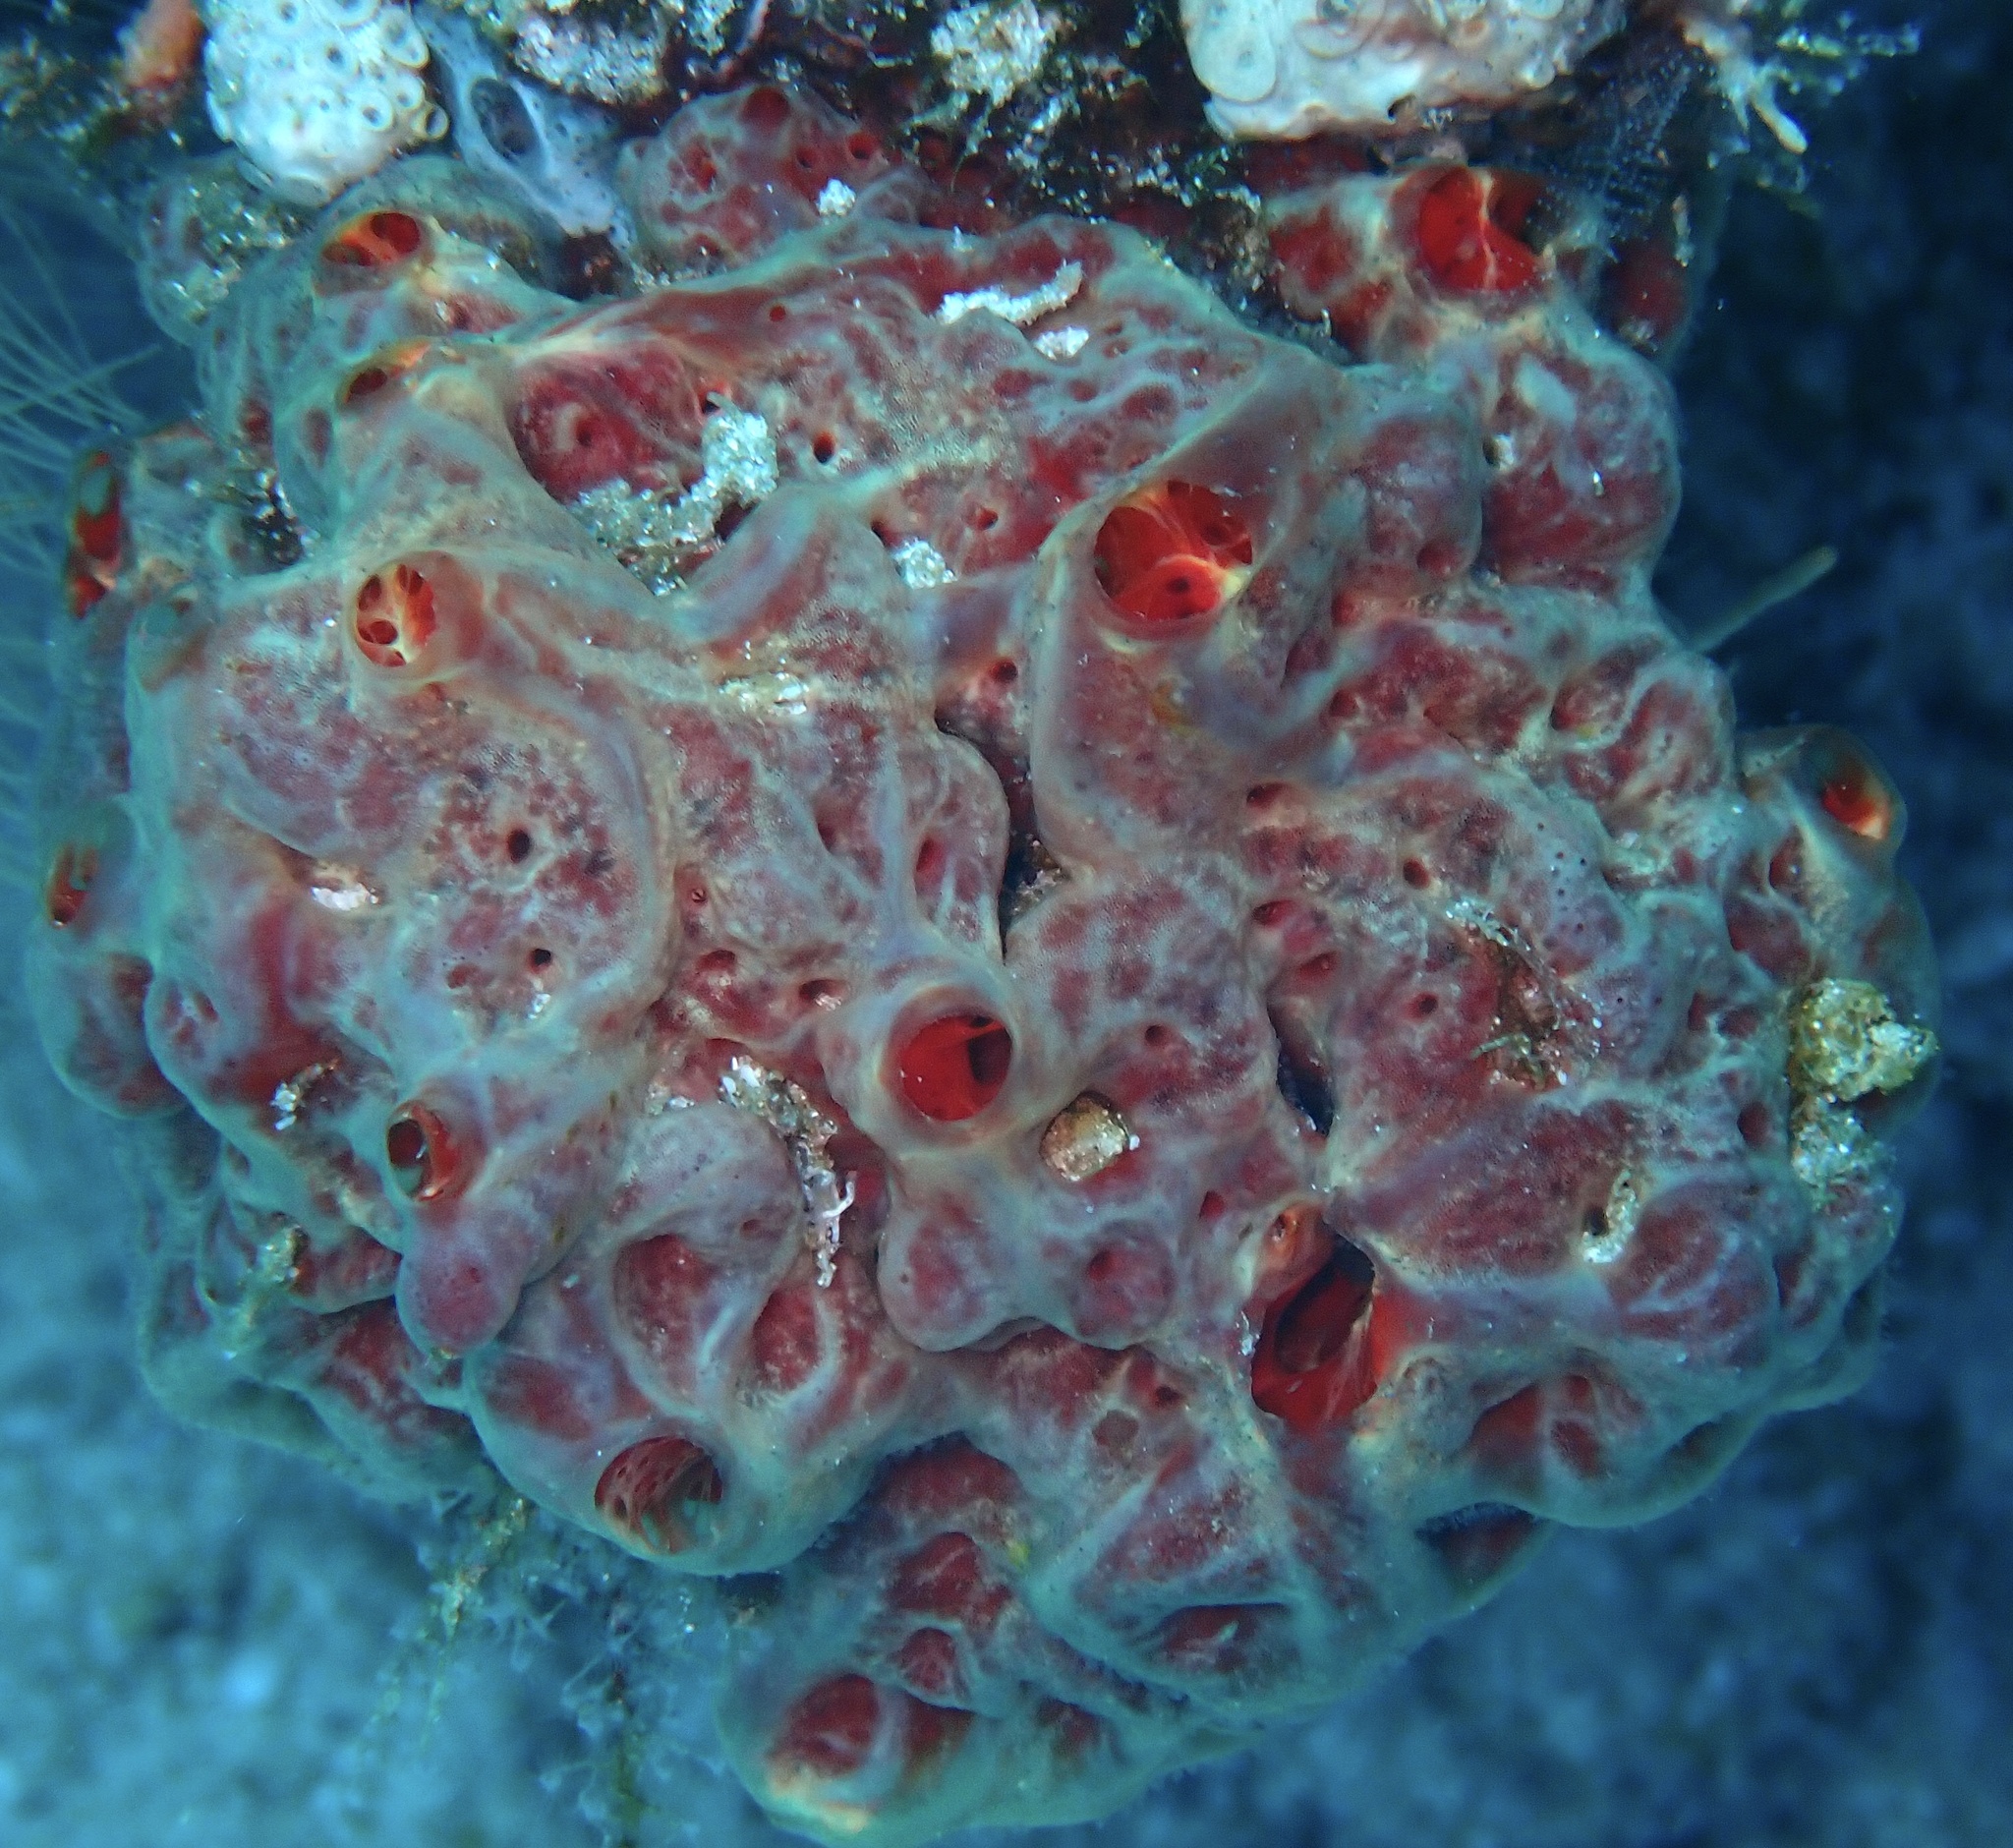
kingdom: Animalia
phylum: Porifera
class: Demospongiae
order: Poecilosclerida
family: Crambeidae
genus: Monanchora
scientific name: Monanchora clathrata
